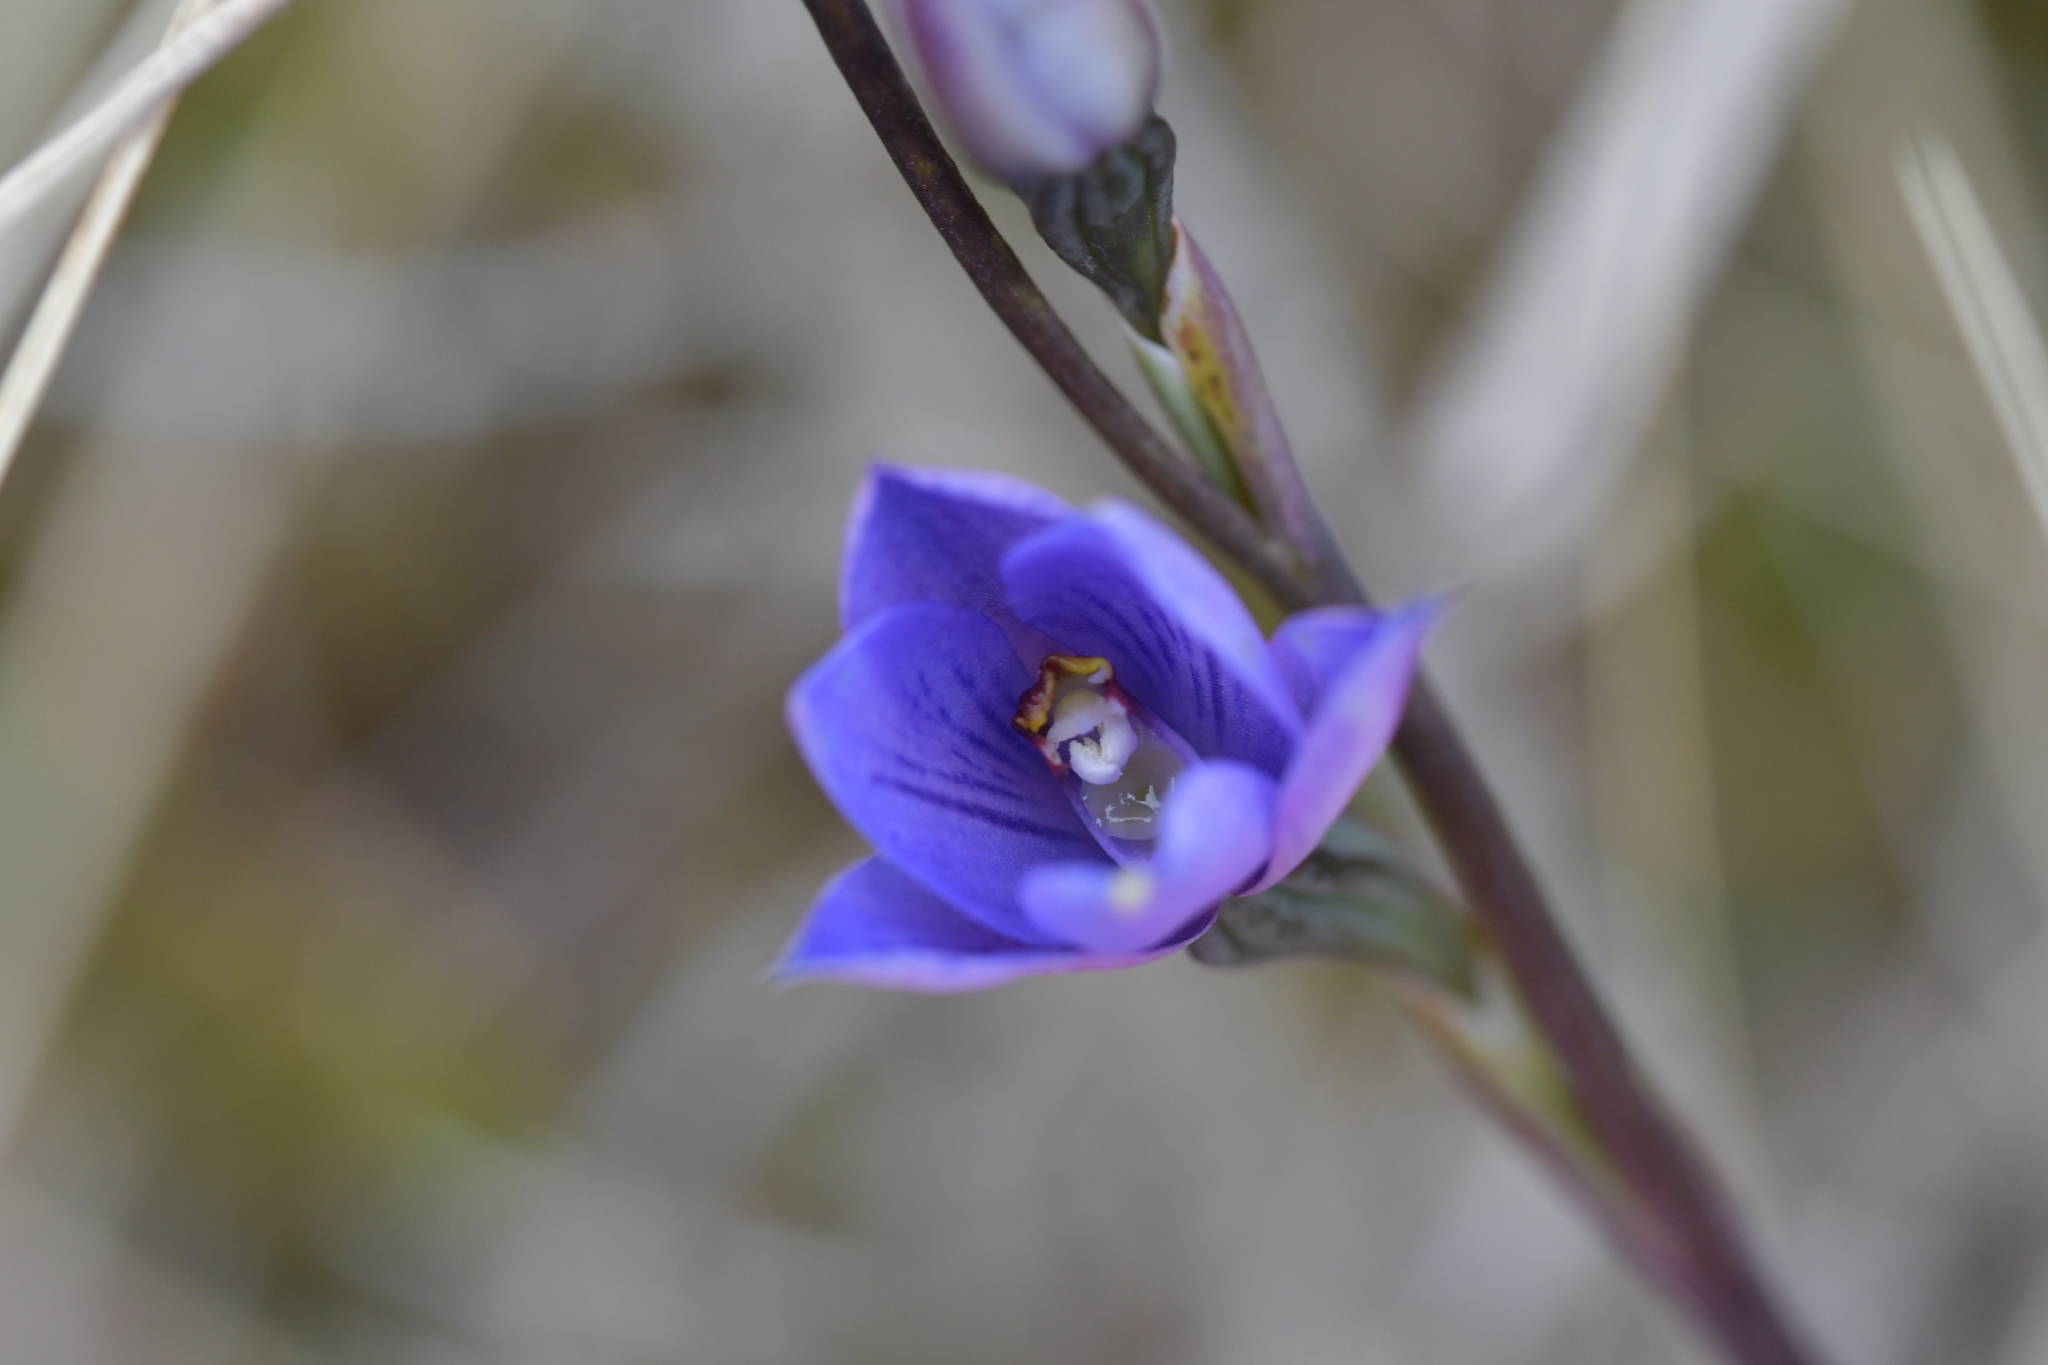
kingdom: Plantae
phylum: Tracheophyta
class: Liliopsida
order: Asparagales
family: Orchidaceae
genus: Thelymitra
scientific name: Thelymitra pulchella
